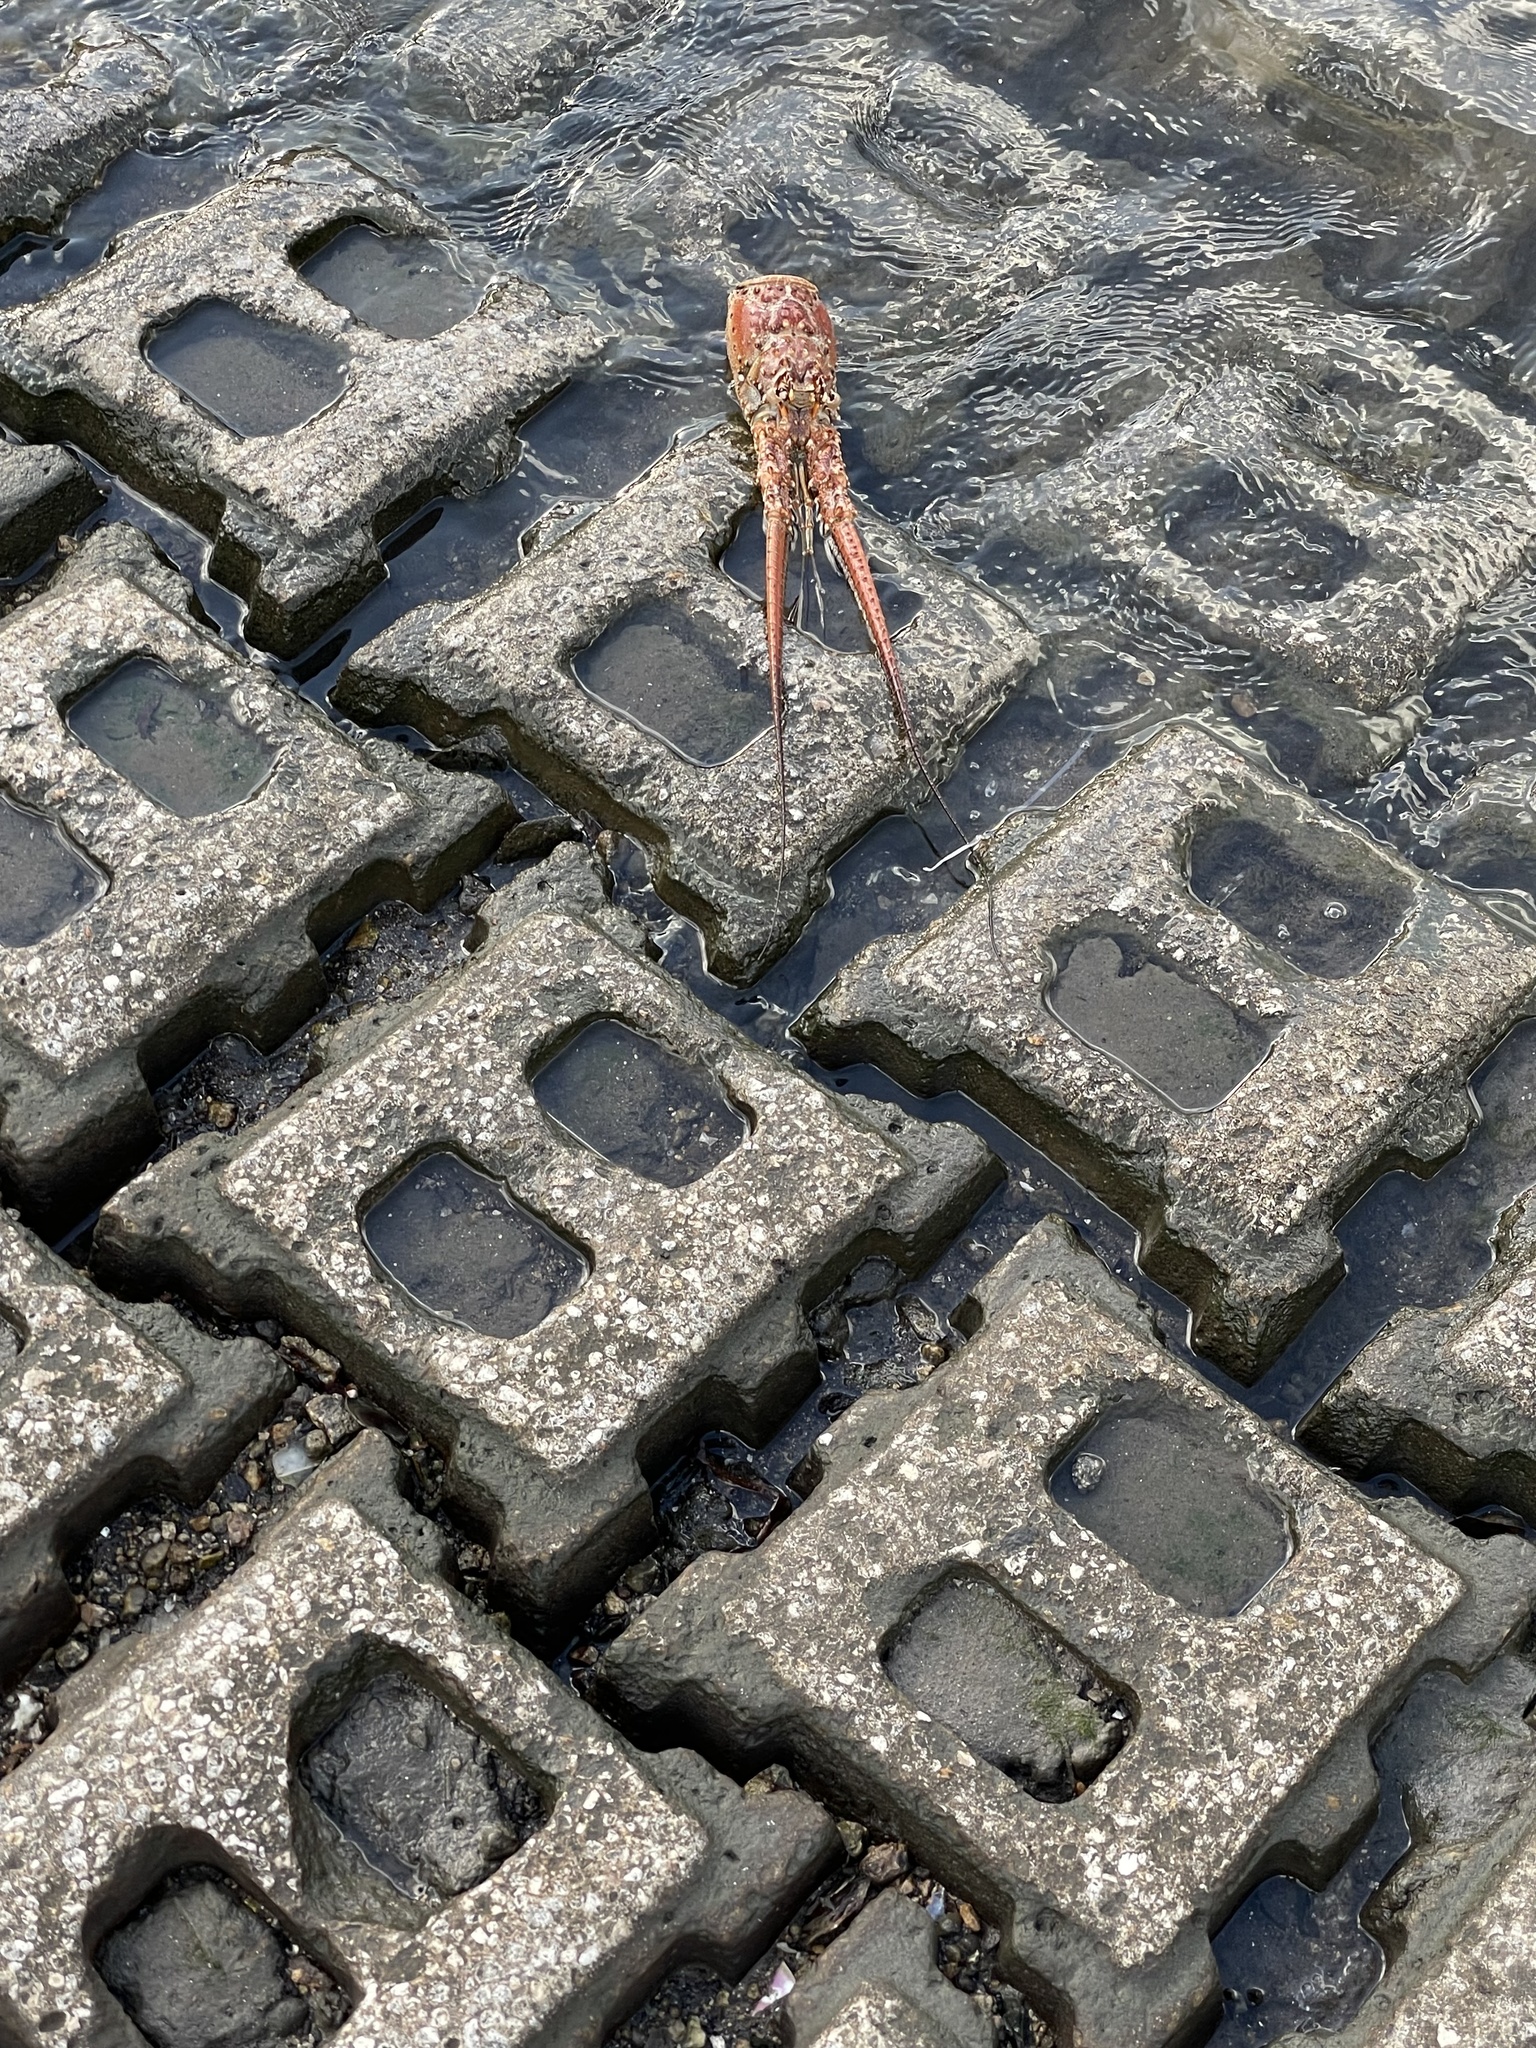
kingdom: Animalia
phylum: Arthropoda
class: Malacostraca
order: Decapoda
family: Palinuridae
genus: Panulirus
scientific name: Panulirus argus
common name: Caribbean spiny lobster
